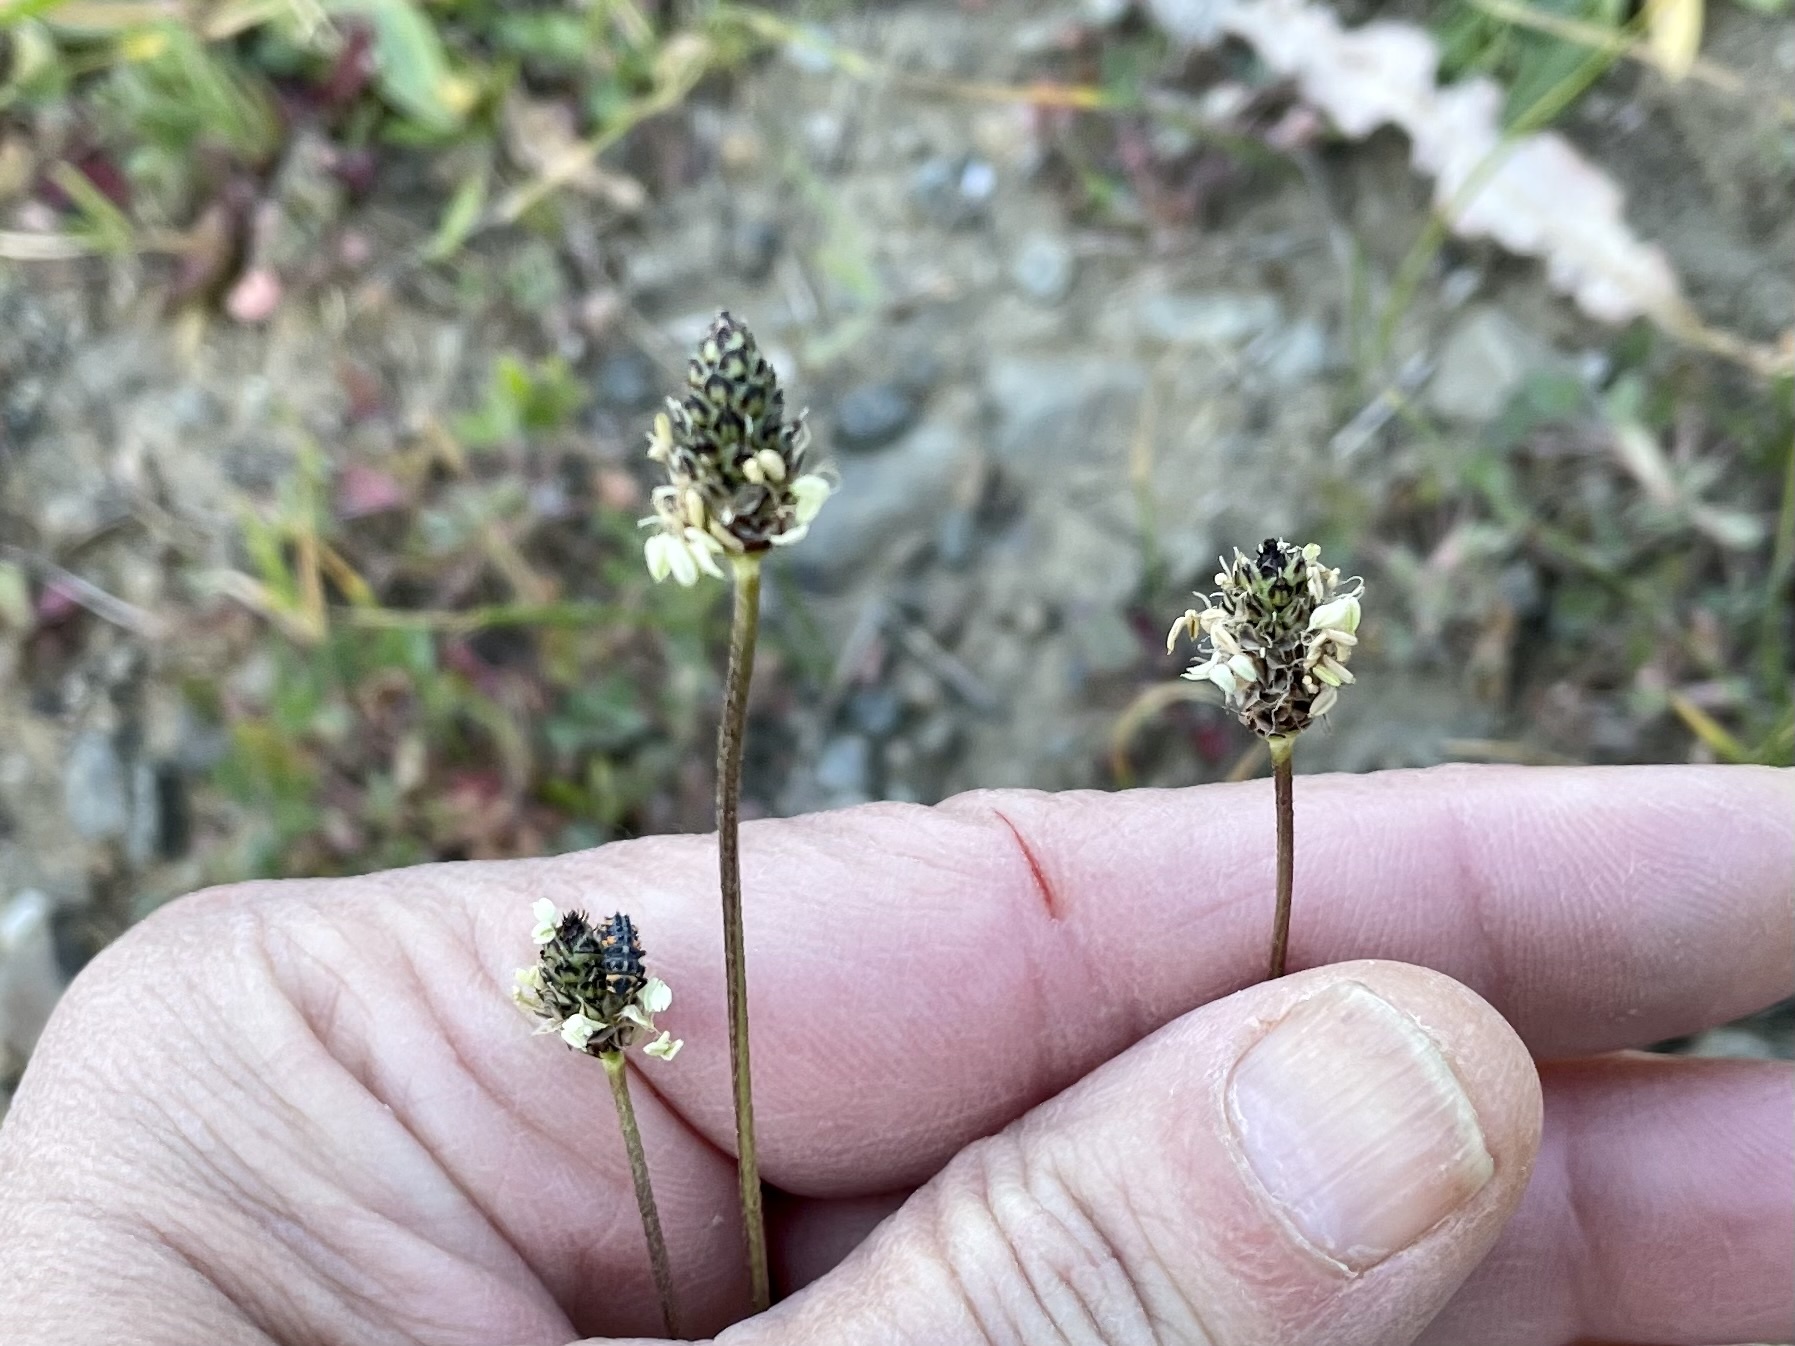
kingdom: Plantae
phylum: Tracheophyta
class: Magnoliopsida
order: Lamiales
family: Plantaginaceae
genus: Plantago
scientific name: Plantago lanceolata
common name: Ribwort plantain
